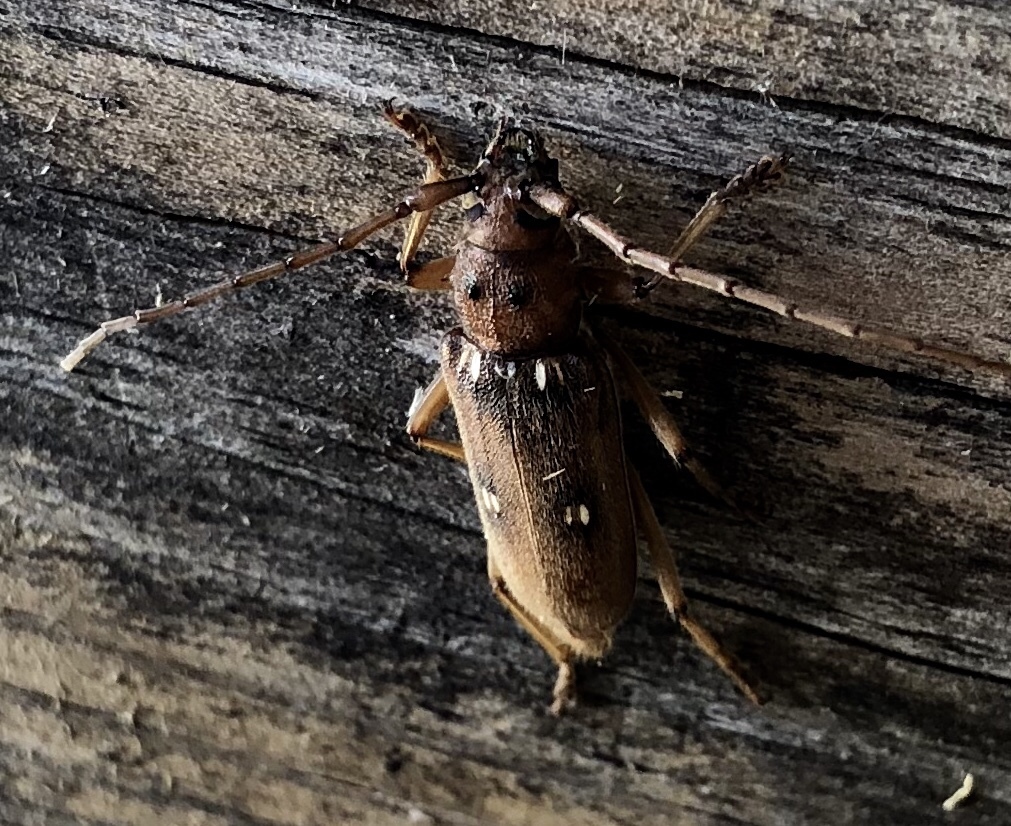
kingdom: Animalia
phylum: Arthropoda
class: Insecta
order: Coleoptera
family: Cerambycidae
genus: Eburia
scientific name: Eburia haldemani
